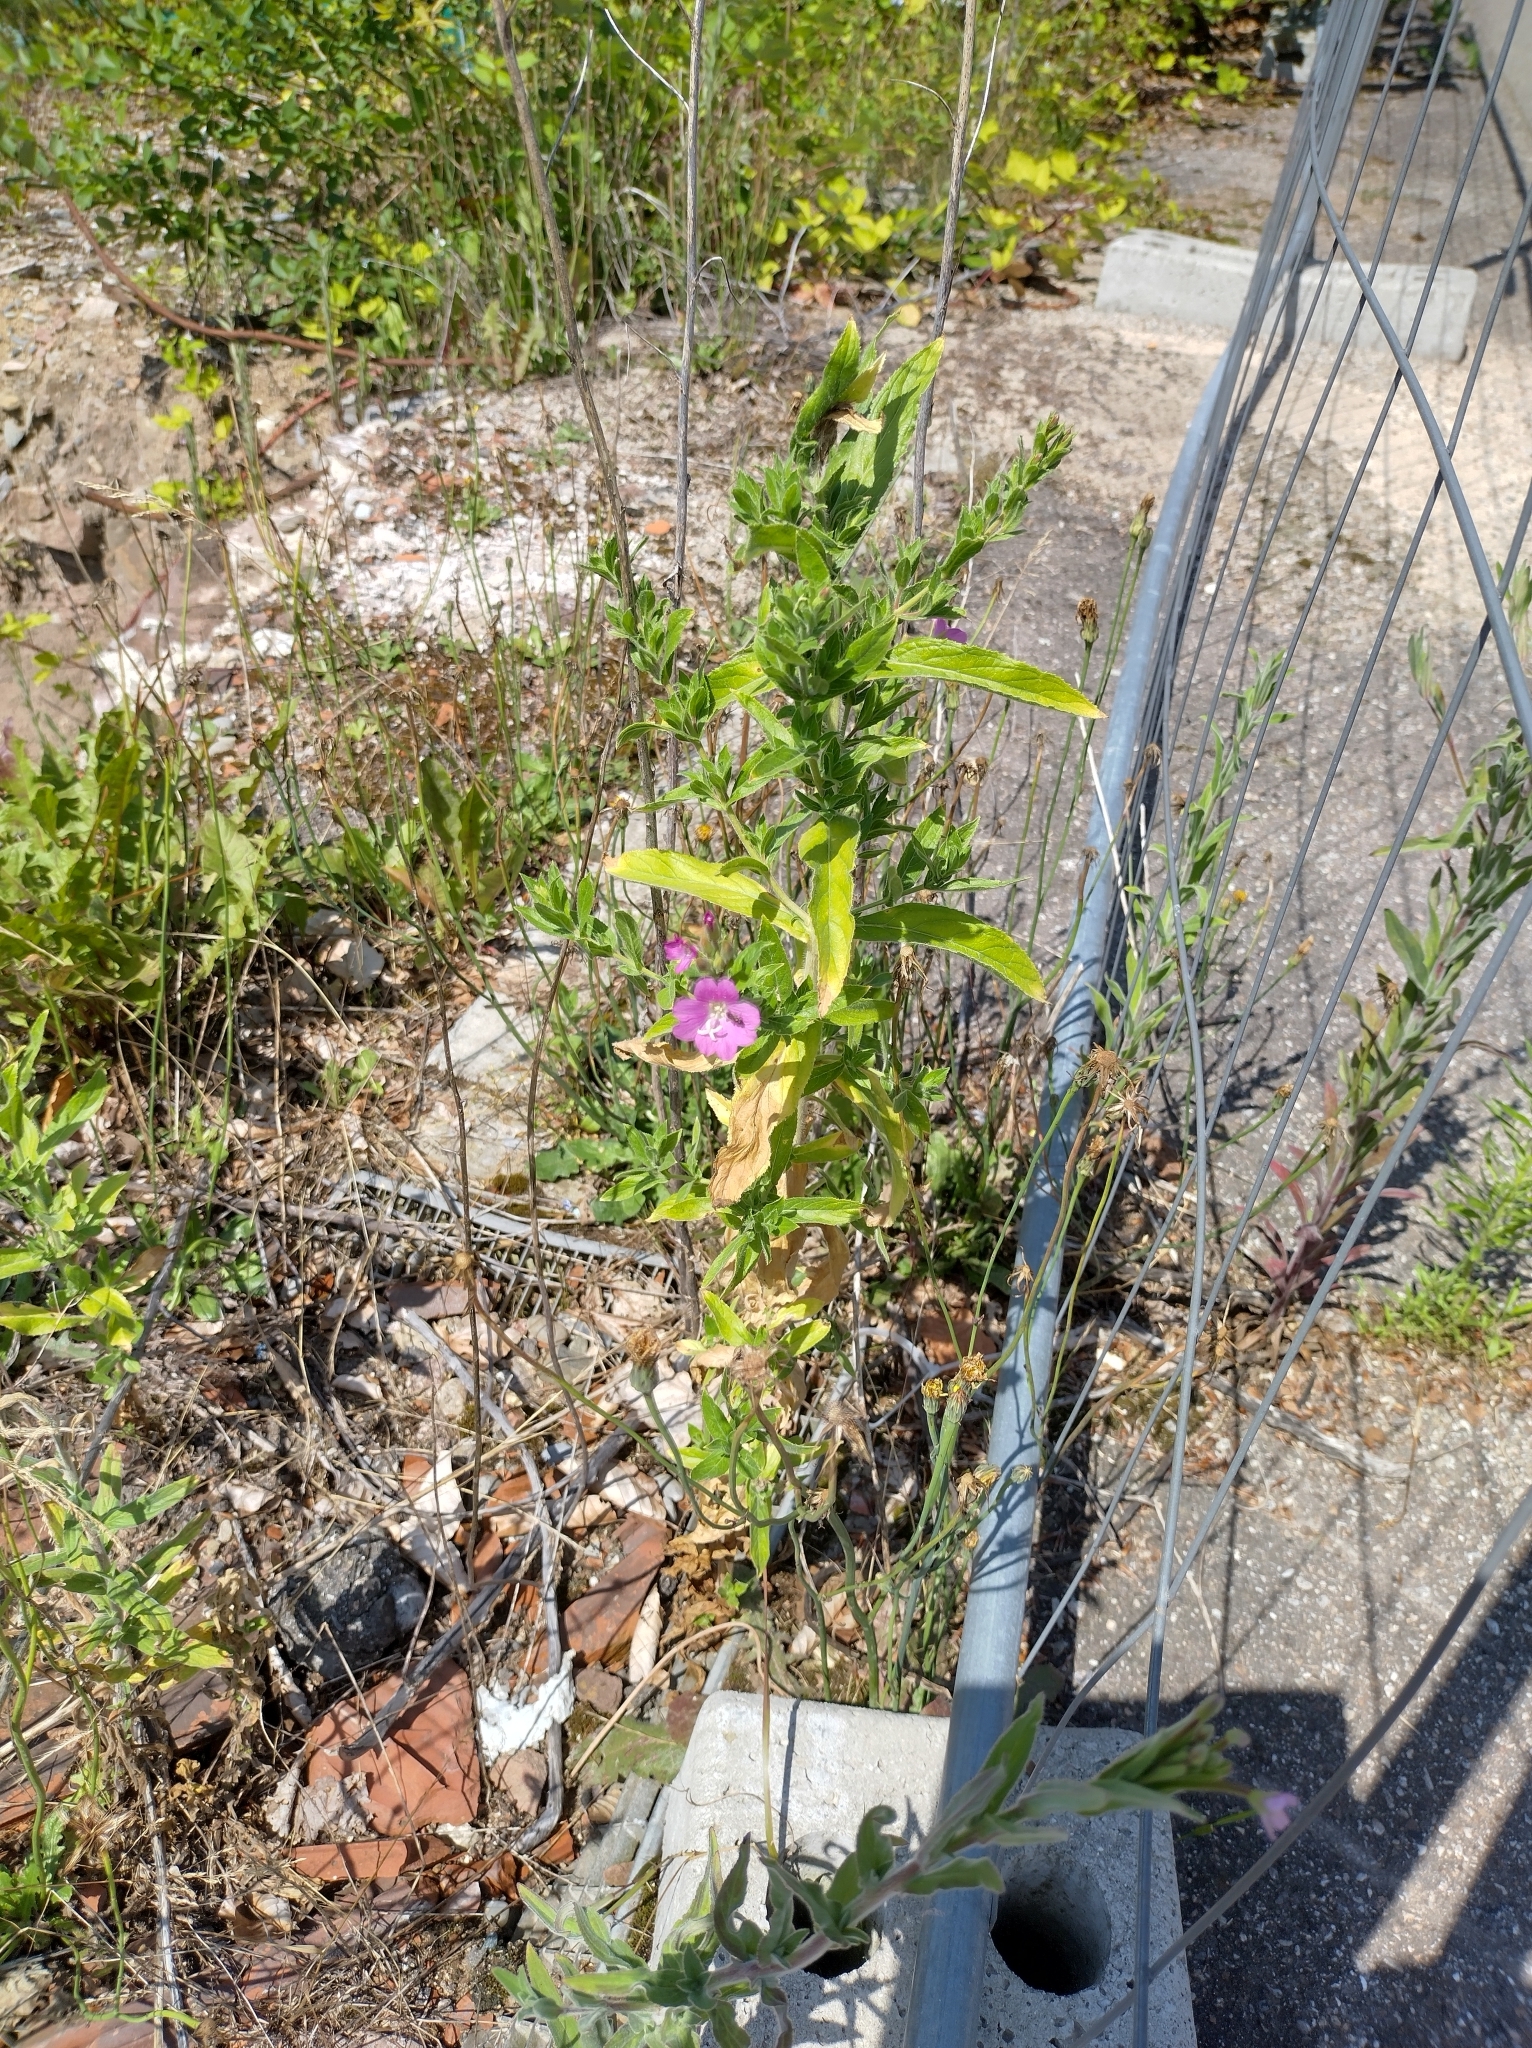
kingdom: Plantae
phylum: Tracheophyta
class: Magnoliopsida
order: Myrtales
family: Onagraceae
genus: Epilobium
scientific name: Epilobium hirsutum
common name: Great willowherb
